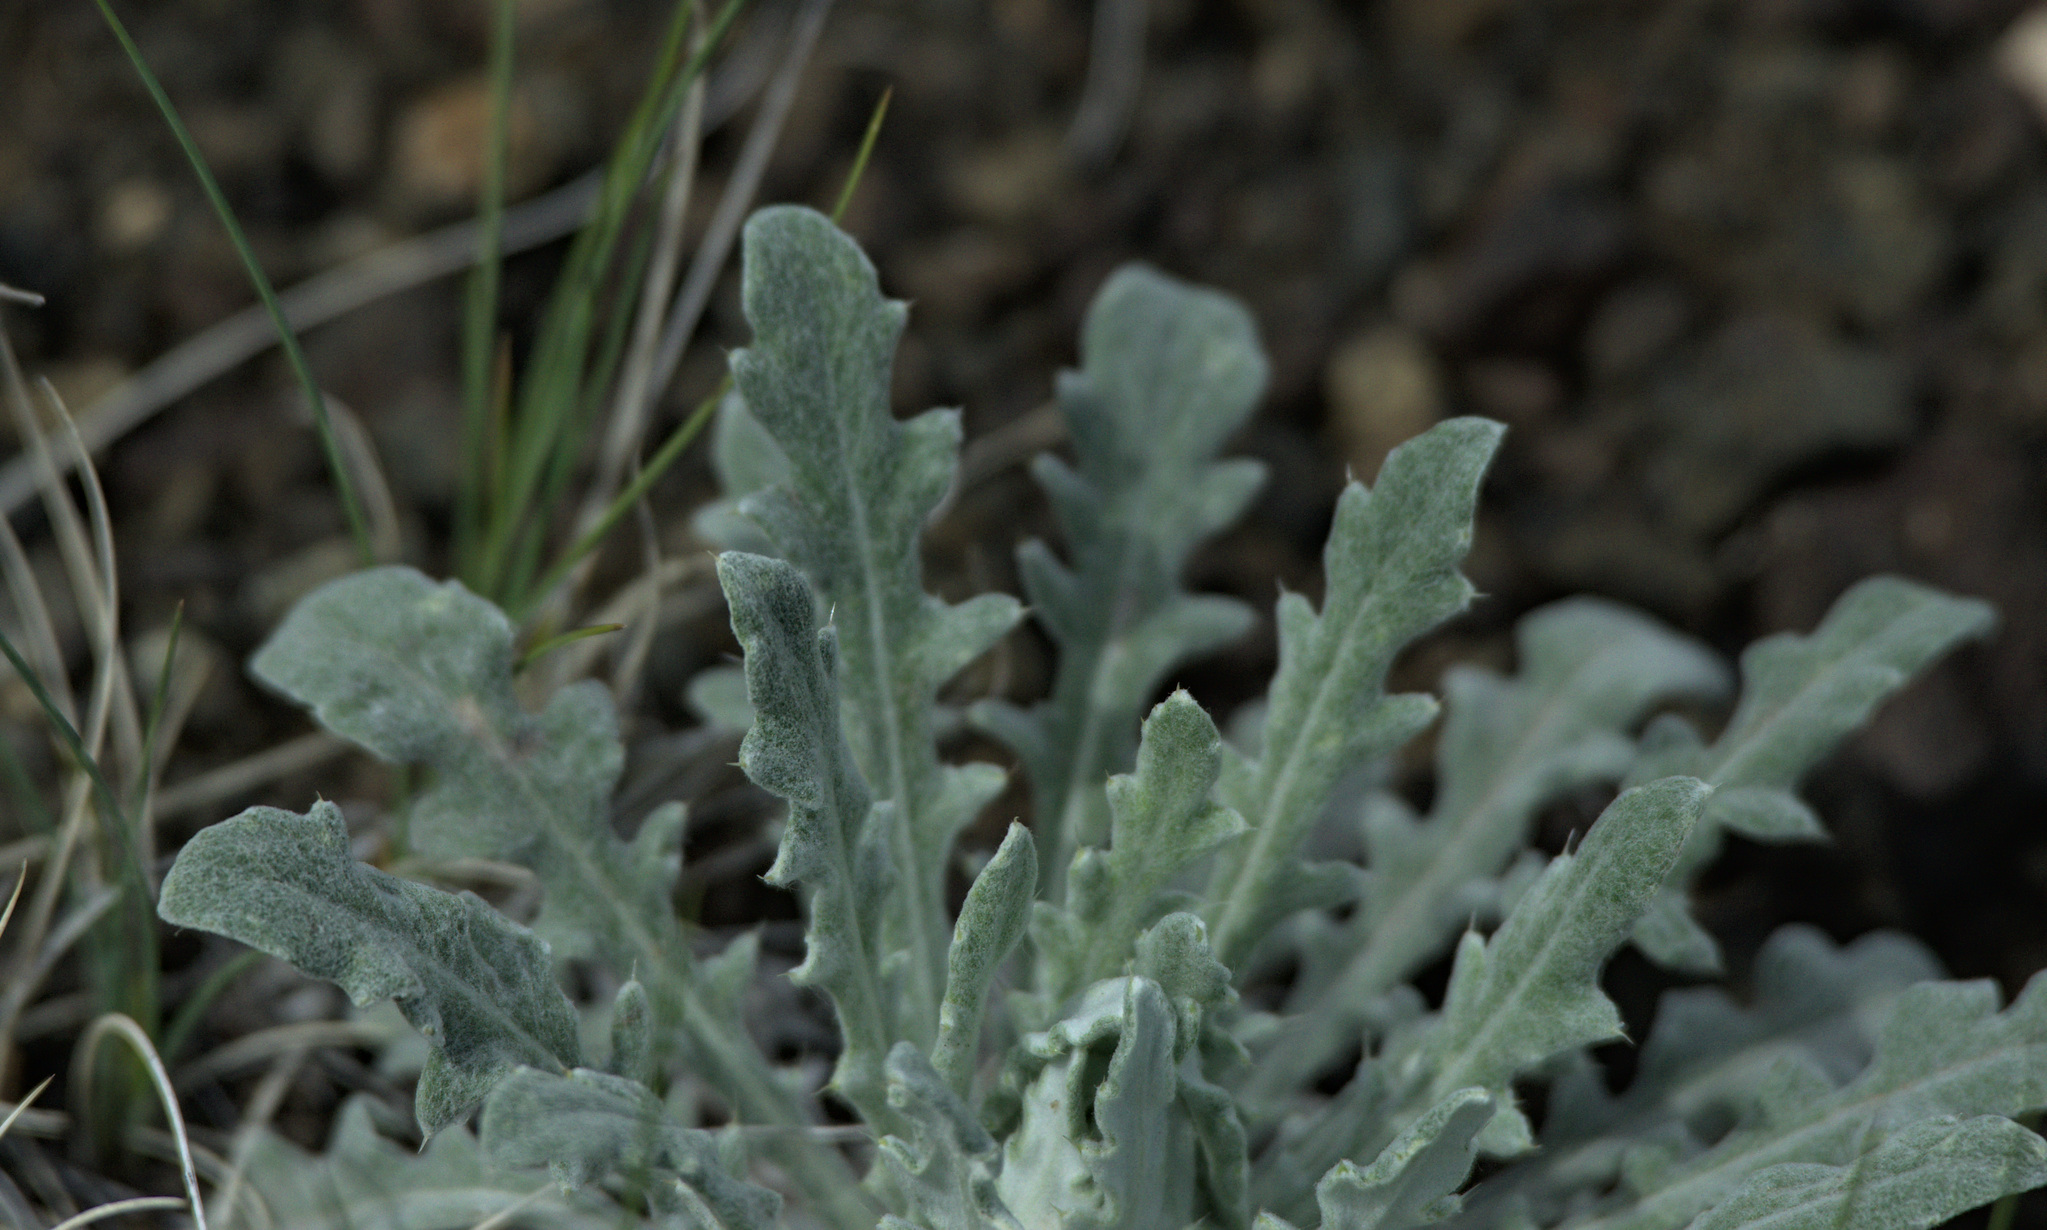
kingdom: Plantae
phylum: Tracheophyta
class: Magnoliopsida
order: Asterales
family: Asteraceae
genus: Echinops
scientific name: Echinops humilis
